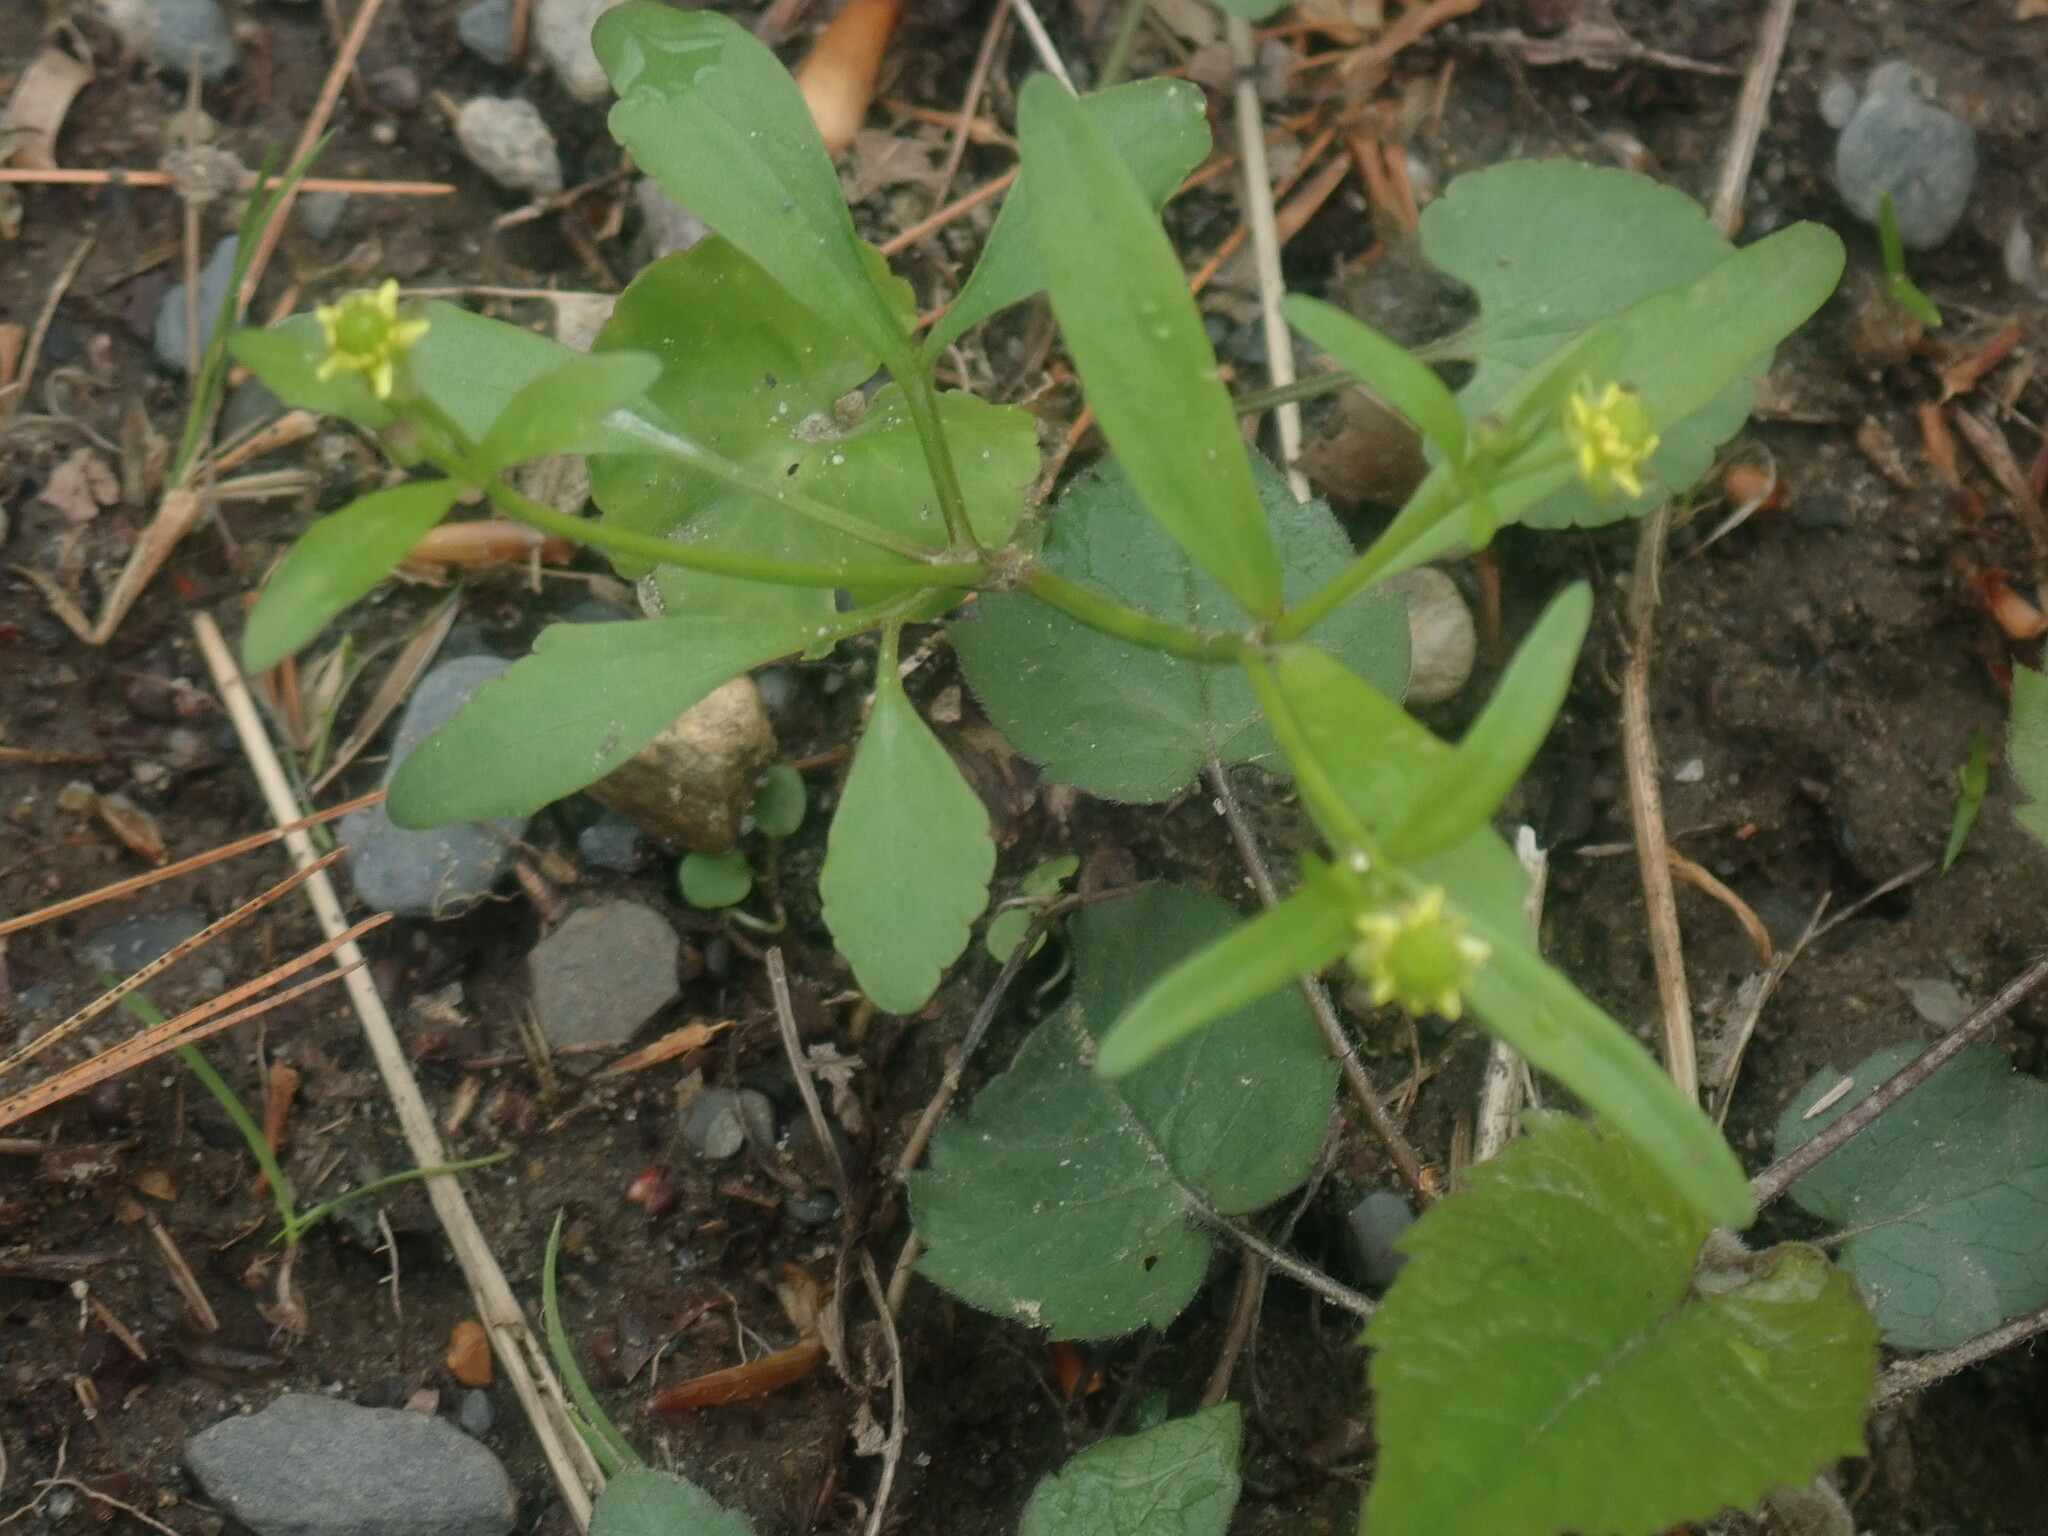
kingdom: Plantae
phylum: Tracheophyta
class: Magnoliopsida
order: Ranunculales
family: Ranunculaceae
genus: Ranunculus
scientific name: Ranunculus abortivus
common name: Early wood buttercup
